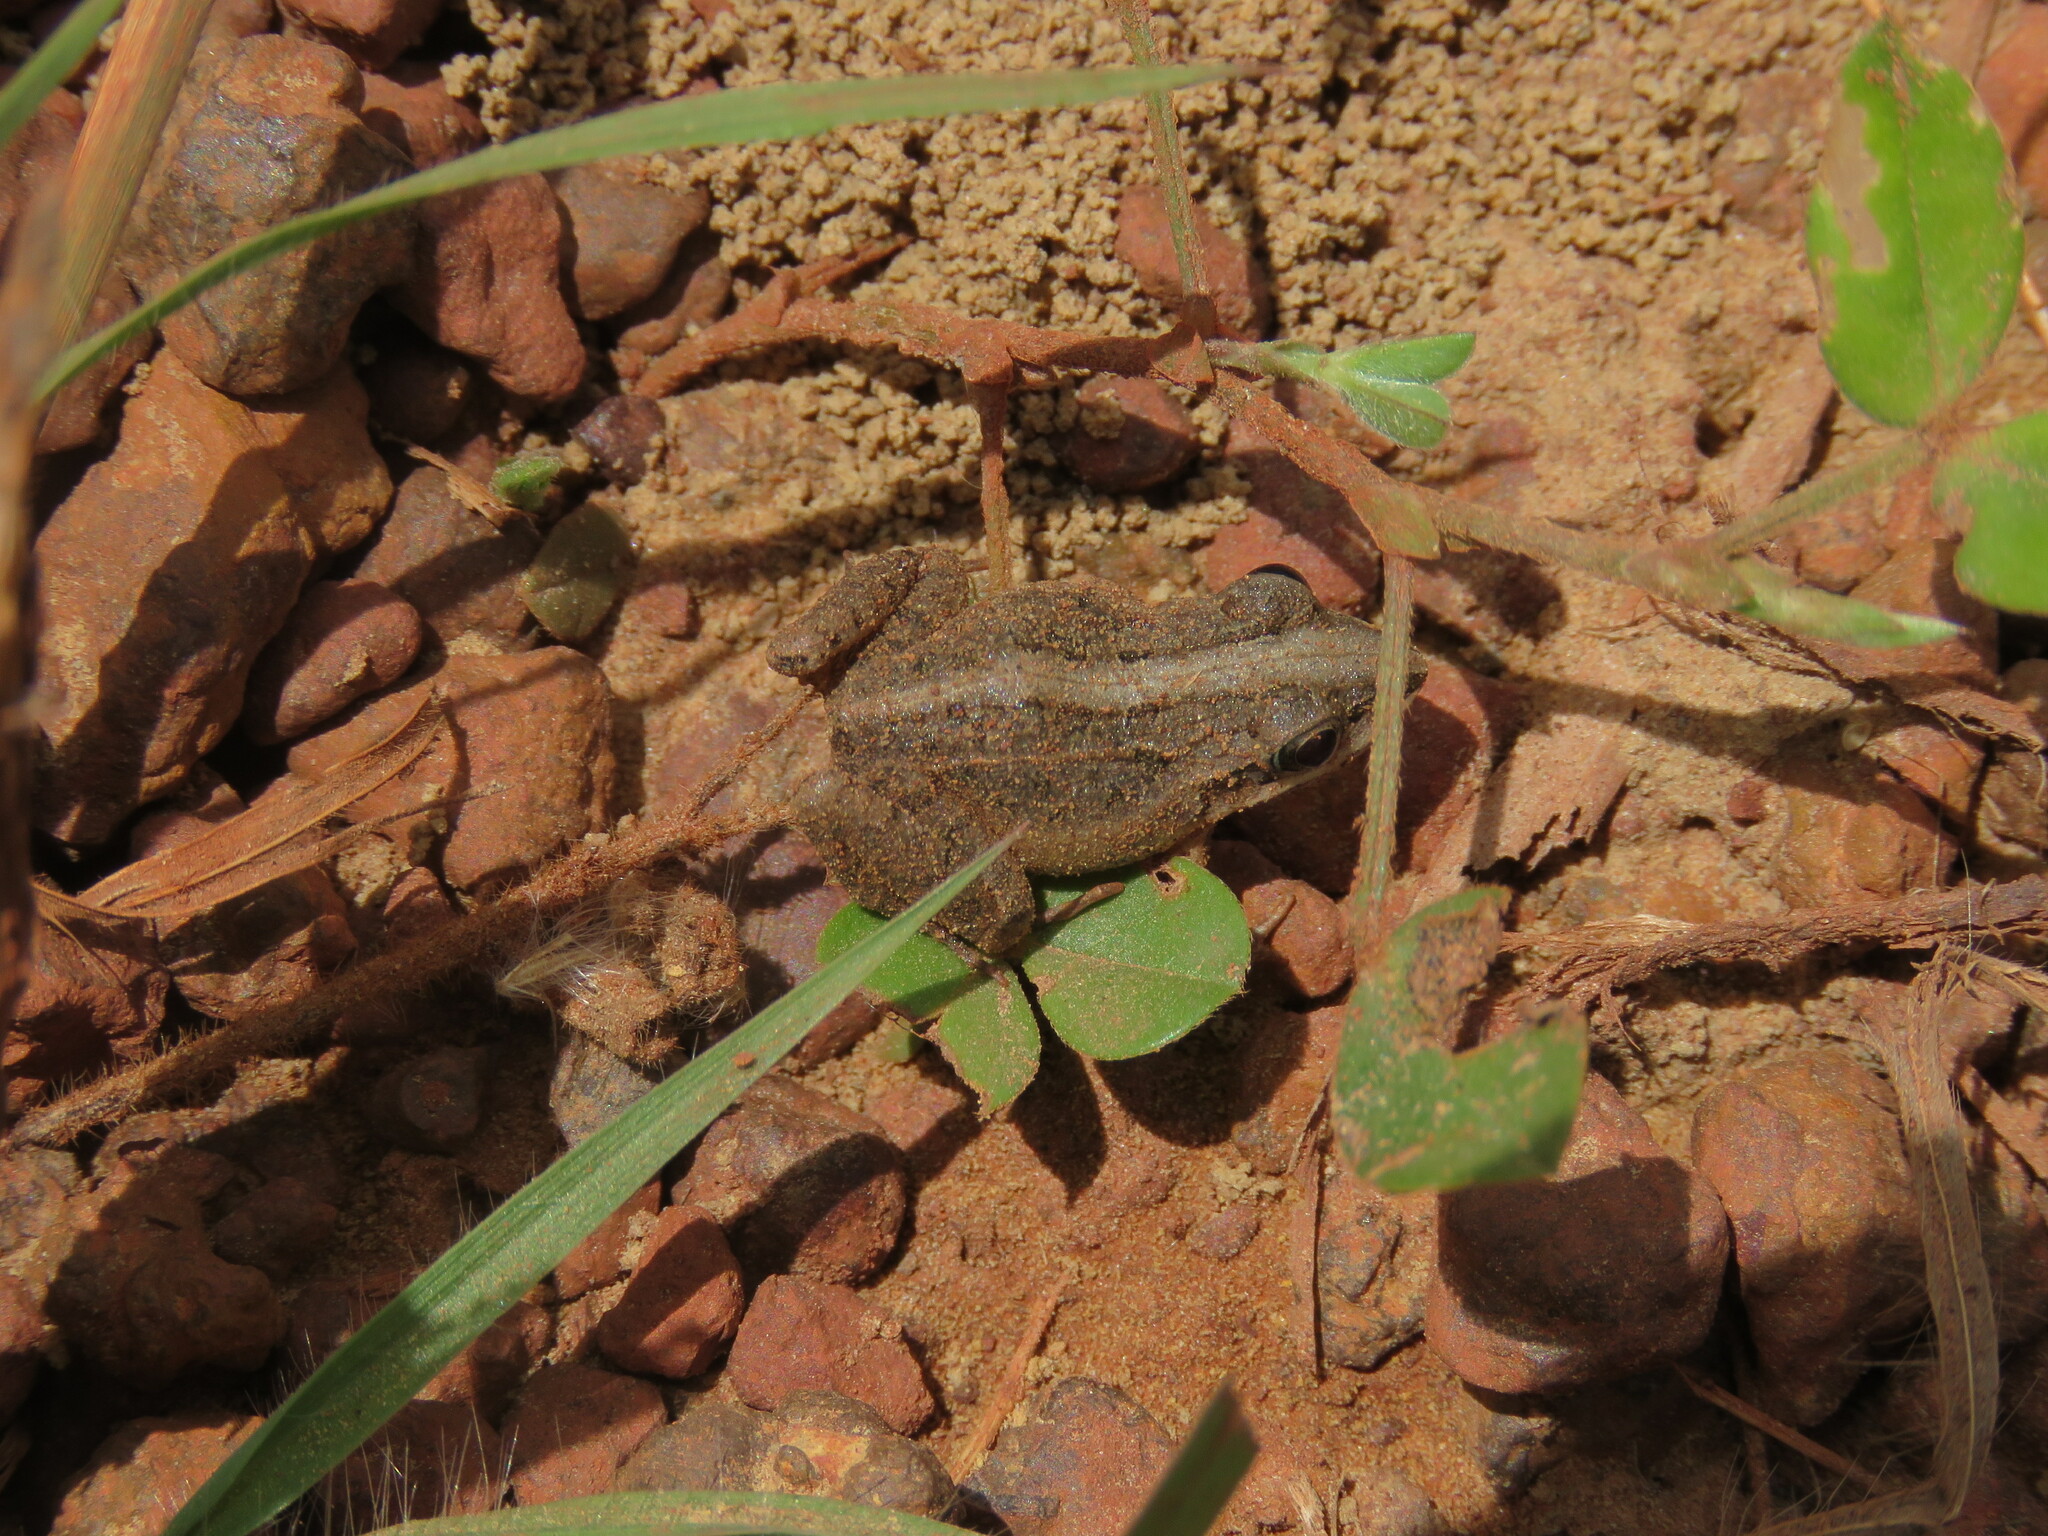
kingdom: Animalia
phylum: Chordata
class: Amphibia
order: Anura
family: Leptodactylidae
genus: Leptodactylus
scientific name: Leptodactylus fuscus
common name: Rufous frog
